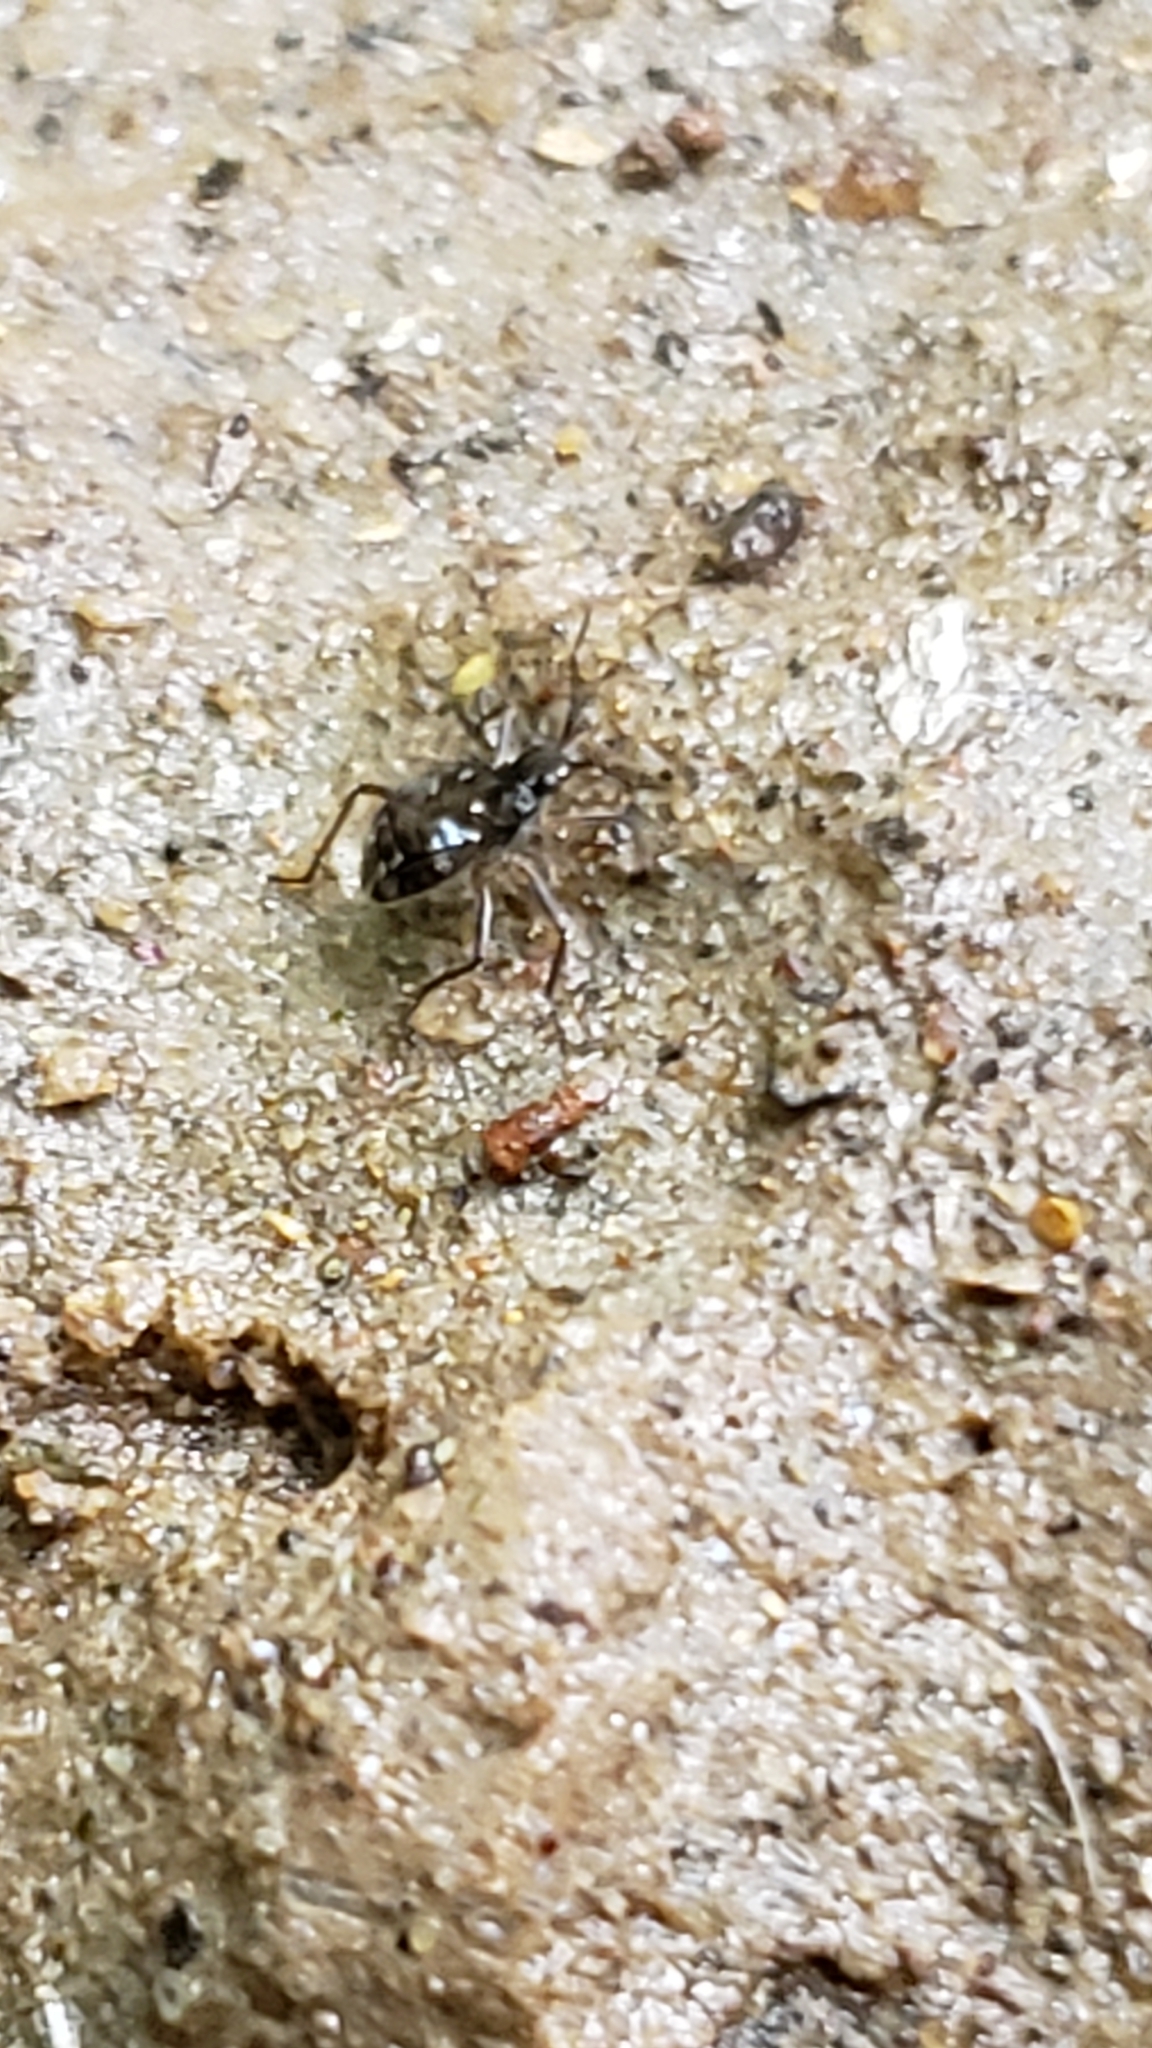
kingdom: Animalia
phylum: Arthropoda
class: Insecta
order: Hemiptera
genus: Kirkaldya
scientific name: Kirkaldya
